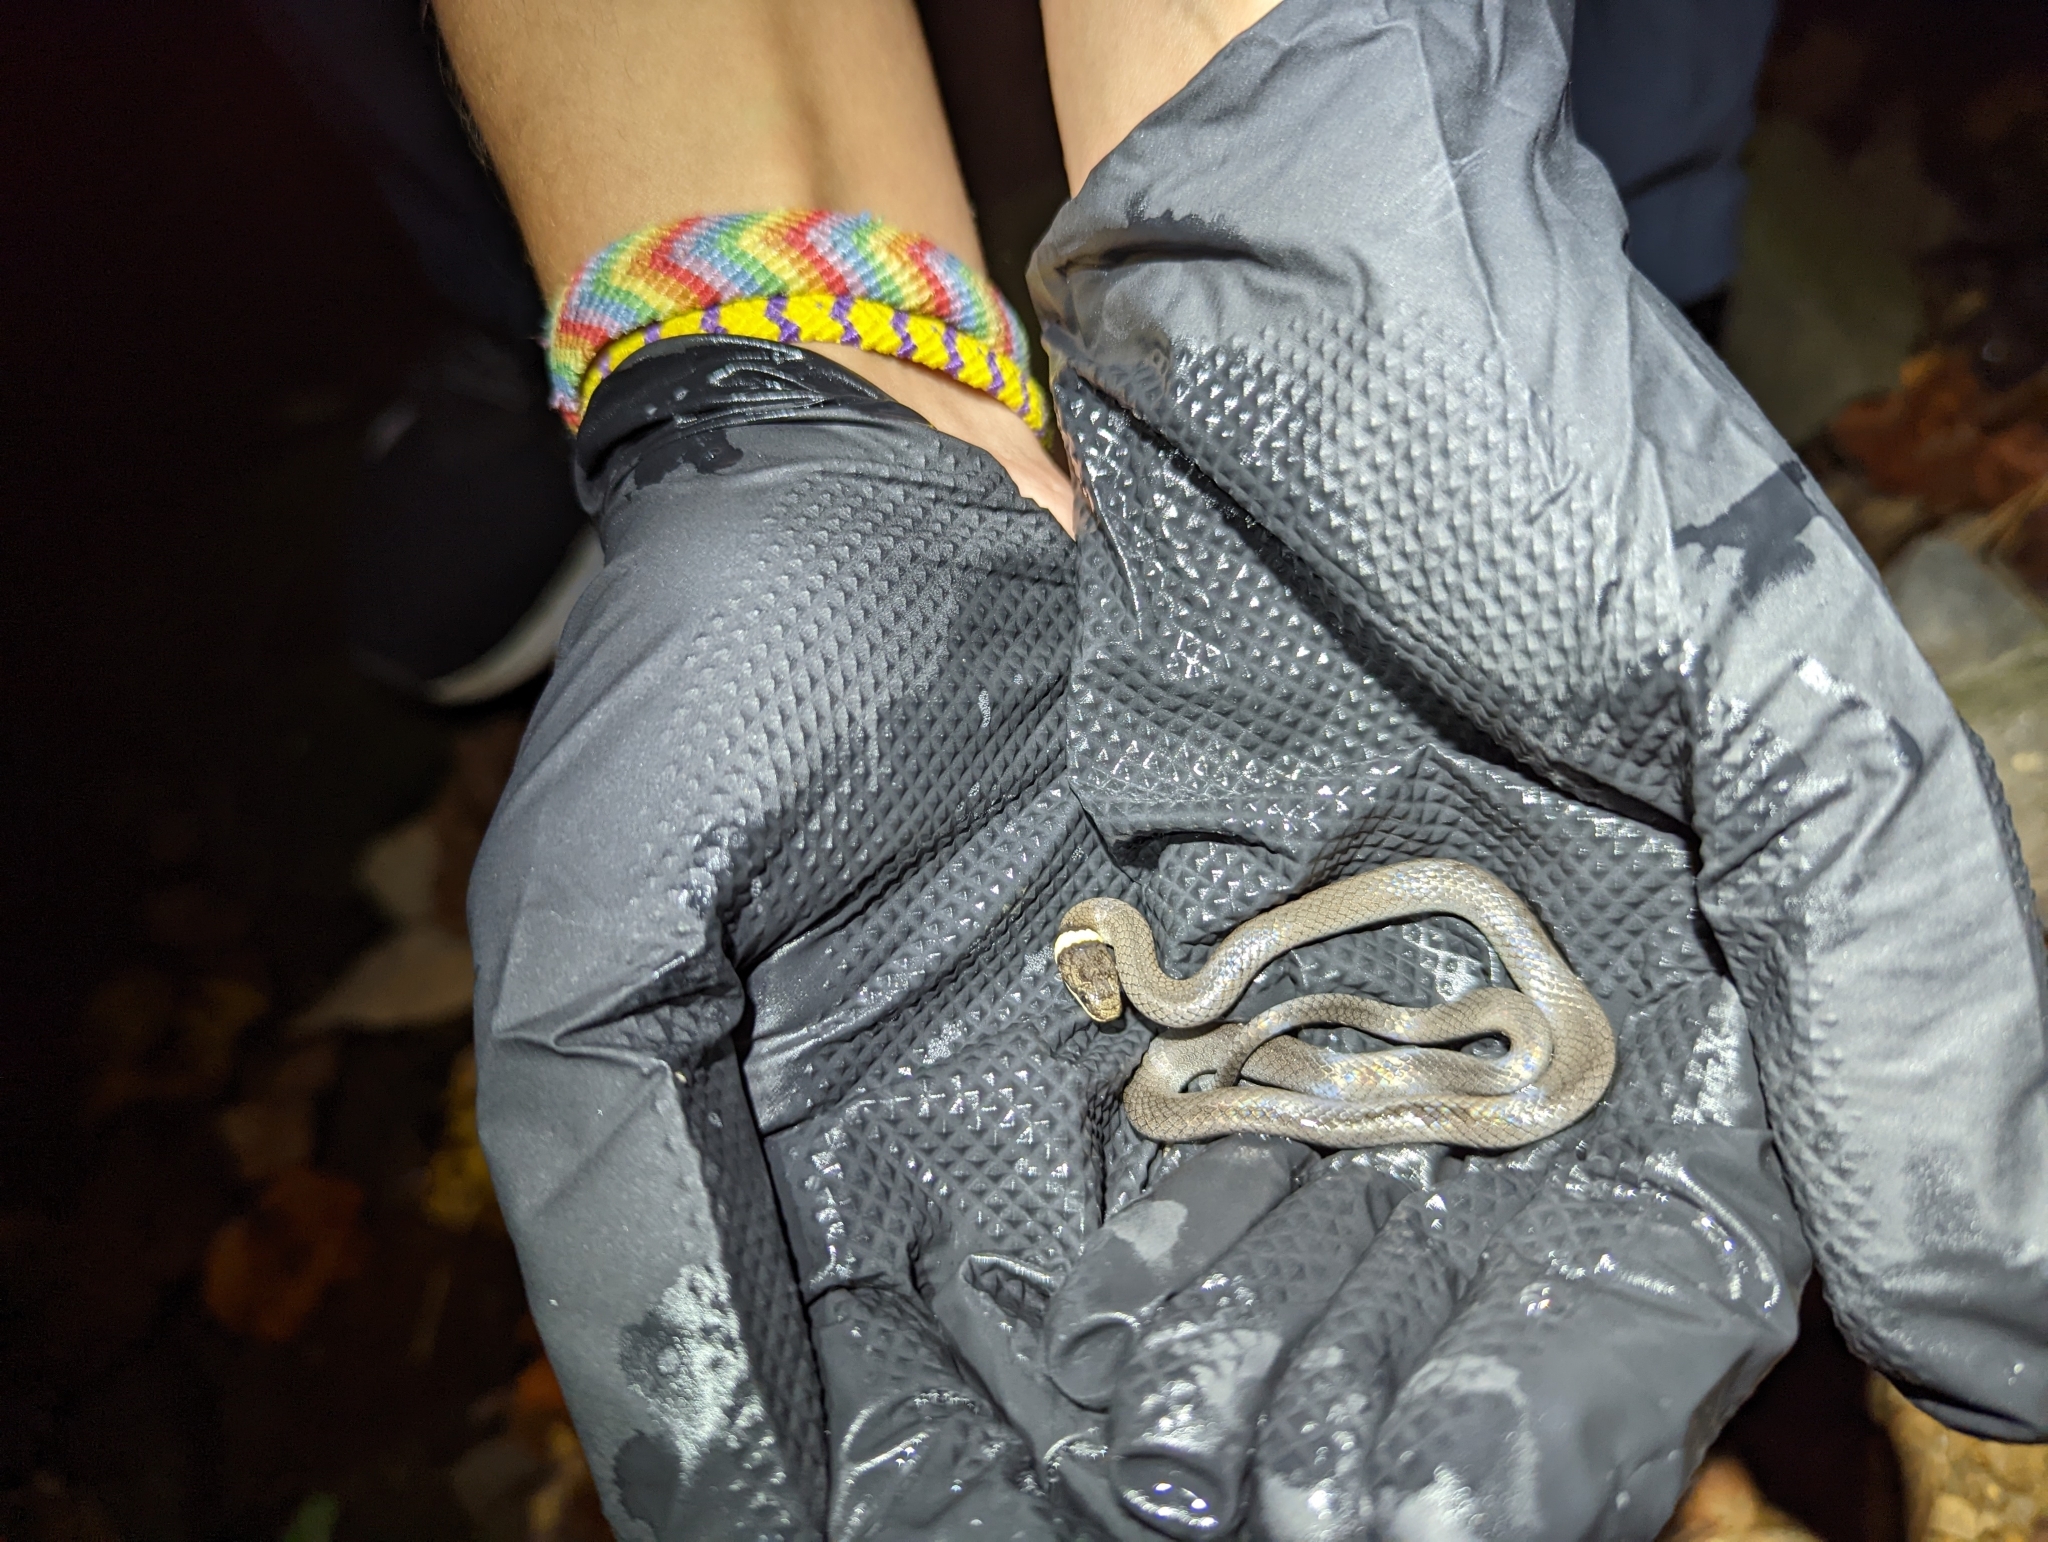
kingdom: Animalia
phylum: Chordata
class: Squamata
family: Colubridae
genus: Diadophis
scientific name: Diadophis punctatus
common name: Ringneck snake
